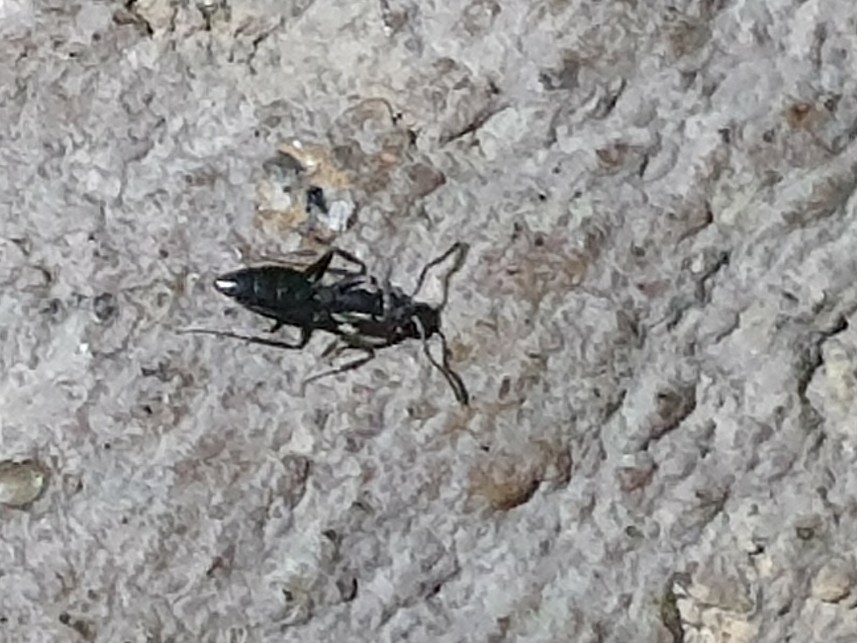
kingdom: Animalia
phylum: Arthropoda
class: Insecta
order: Hymenoptera
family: Formicidae
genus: Technomyrmex
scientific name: Technomyrmex vitiensis
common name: Ant
